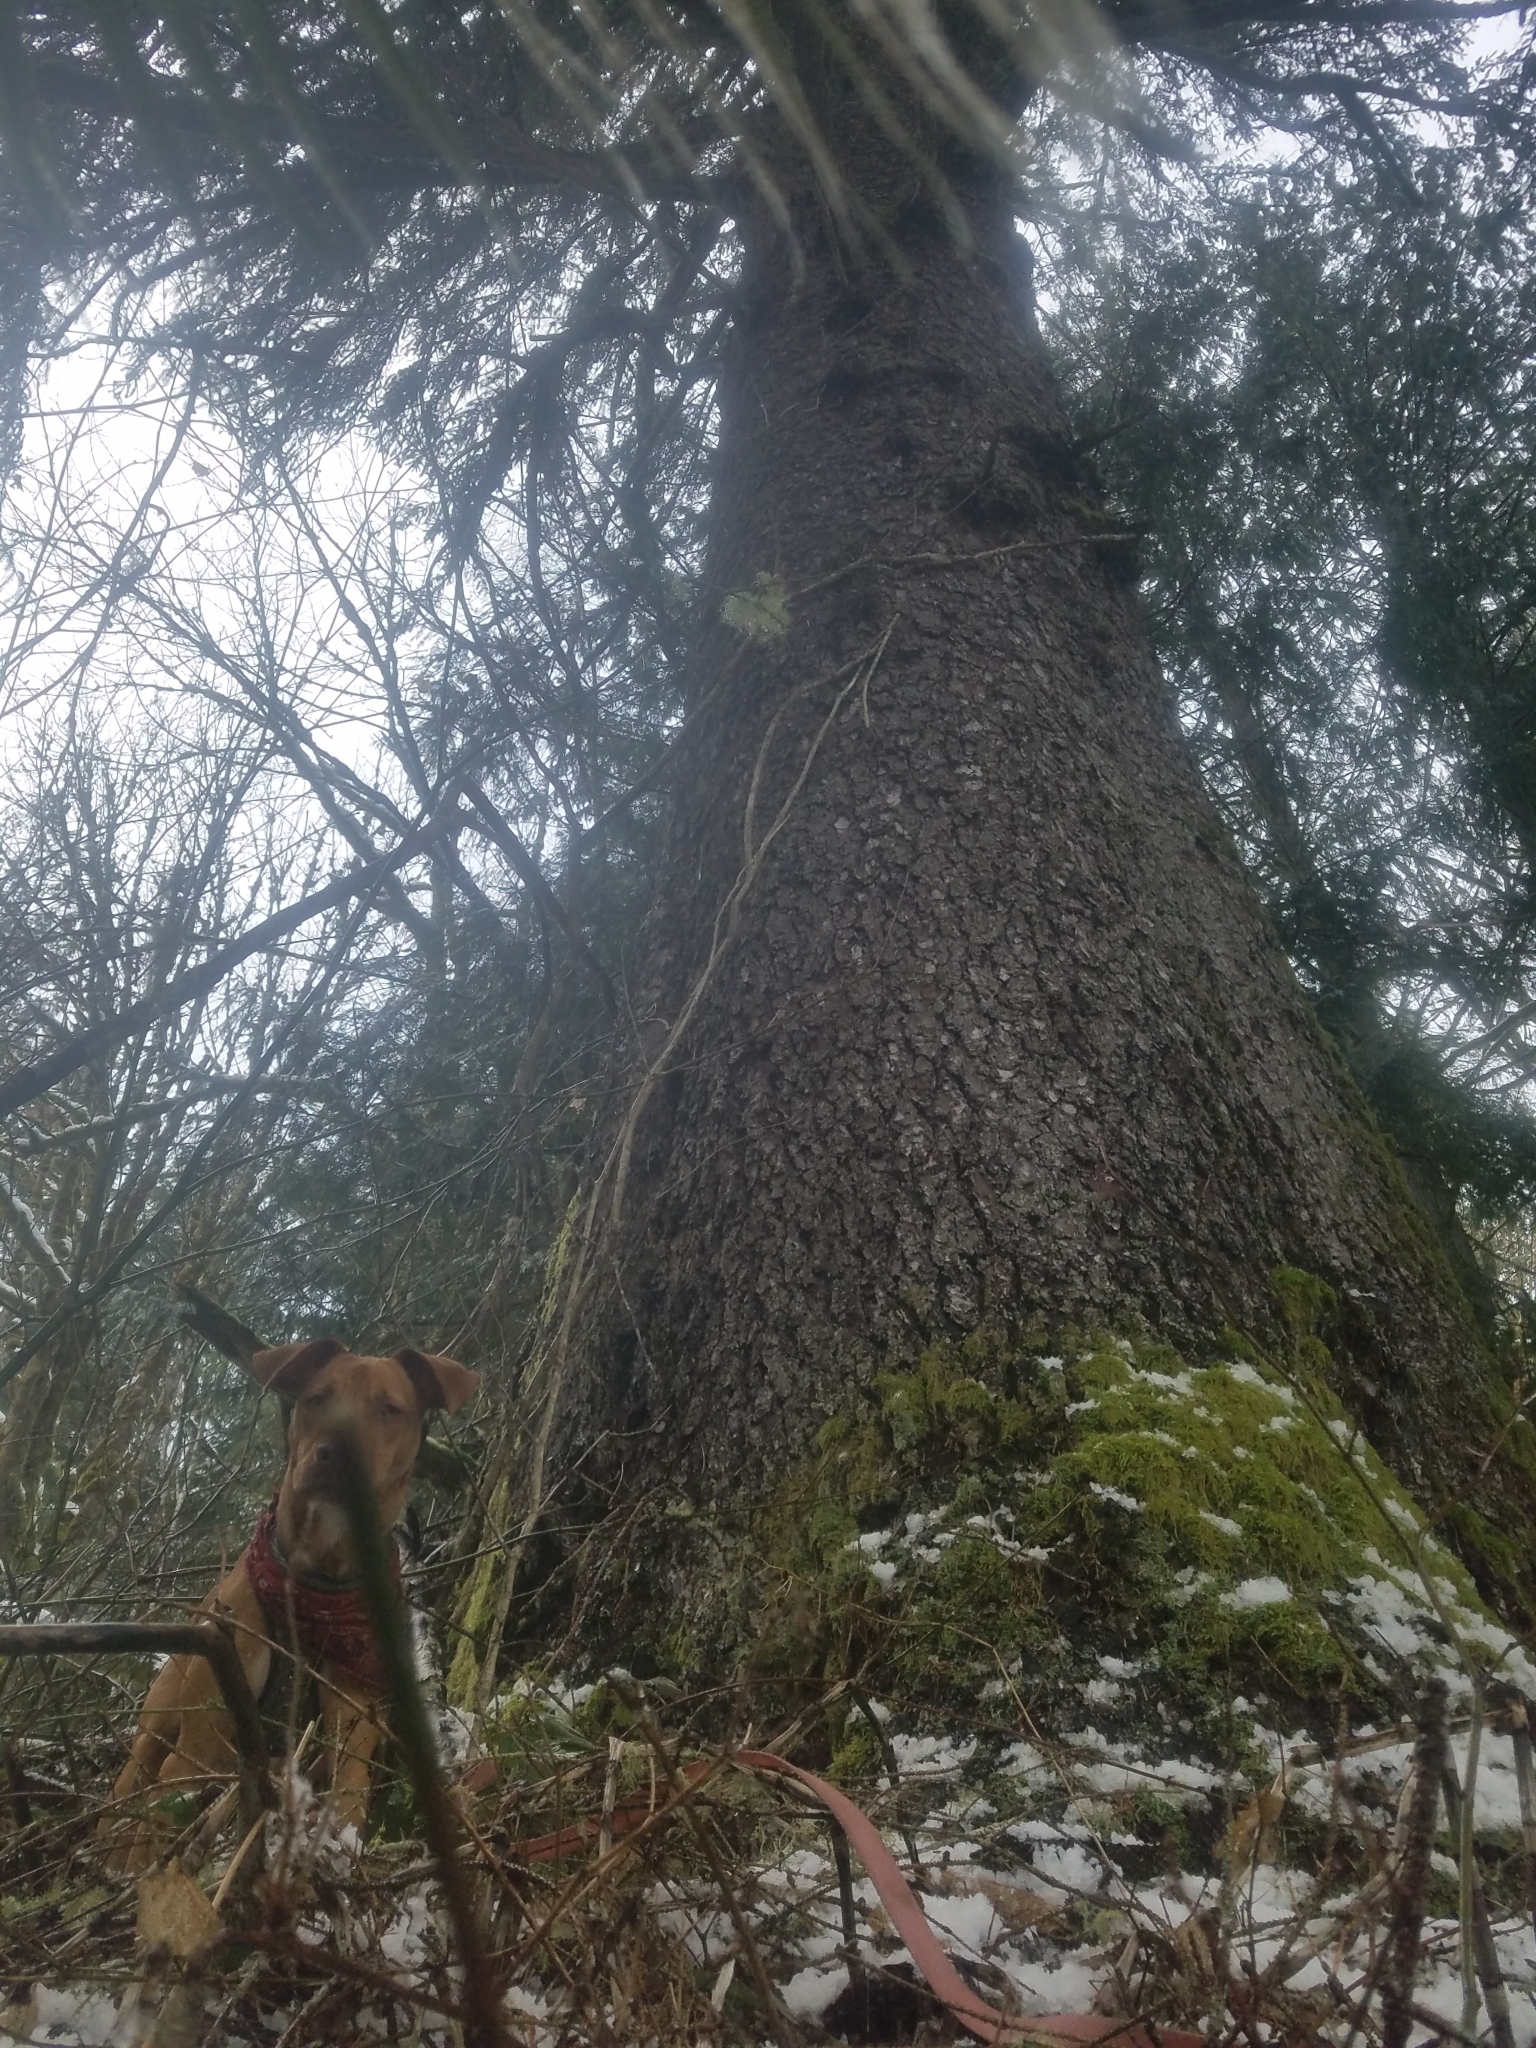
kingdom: Plantae
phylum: Tracheophyta
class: Pinopsida
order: Pinales
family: Pinaceae
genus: Picea
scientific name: Picea sitchensis
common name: Sitka spruce
